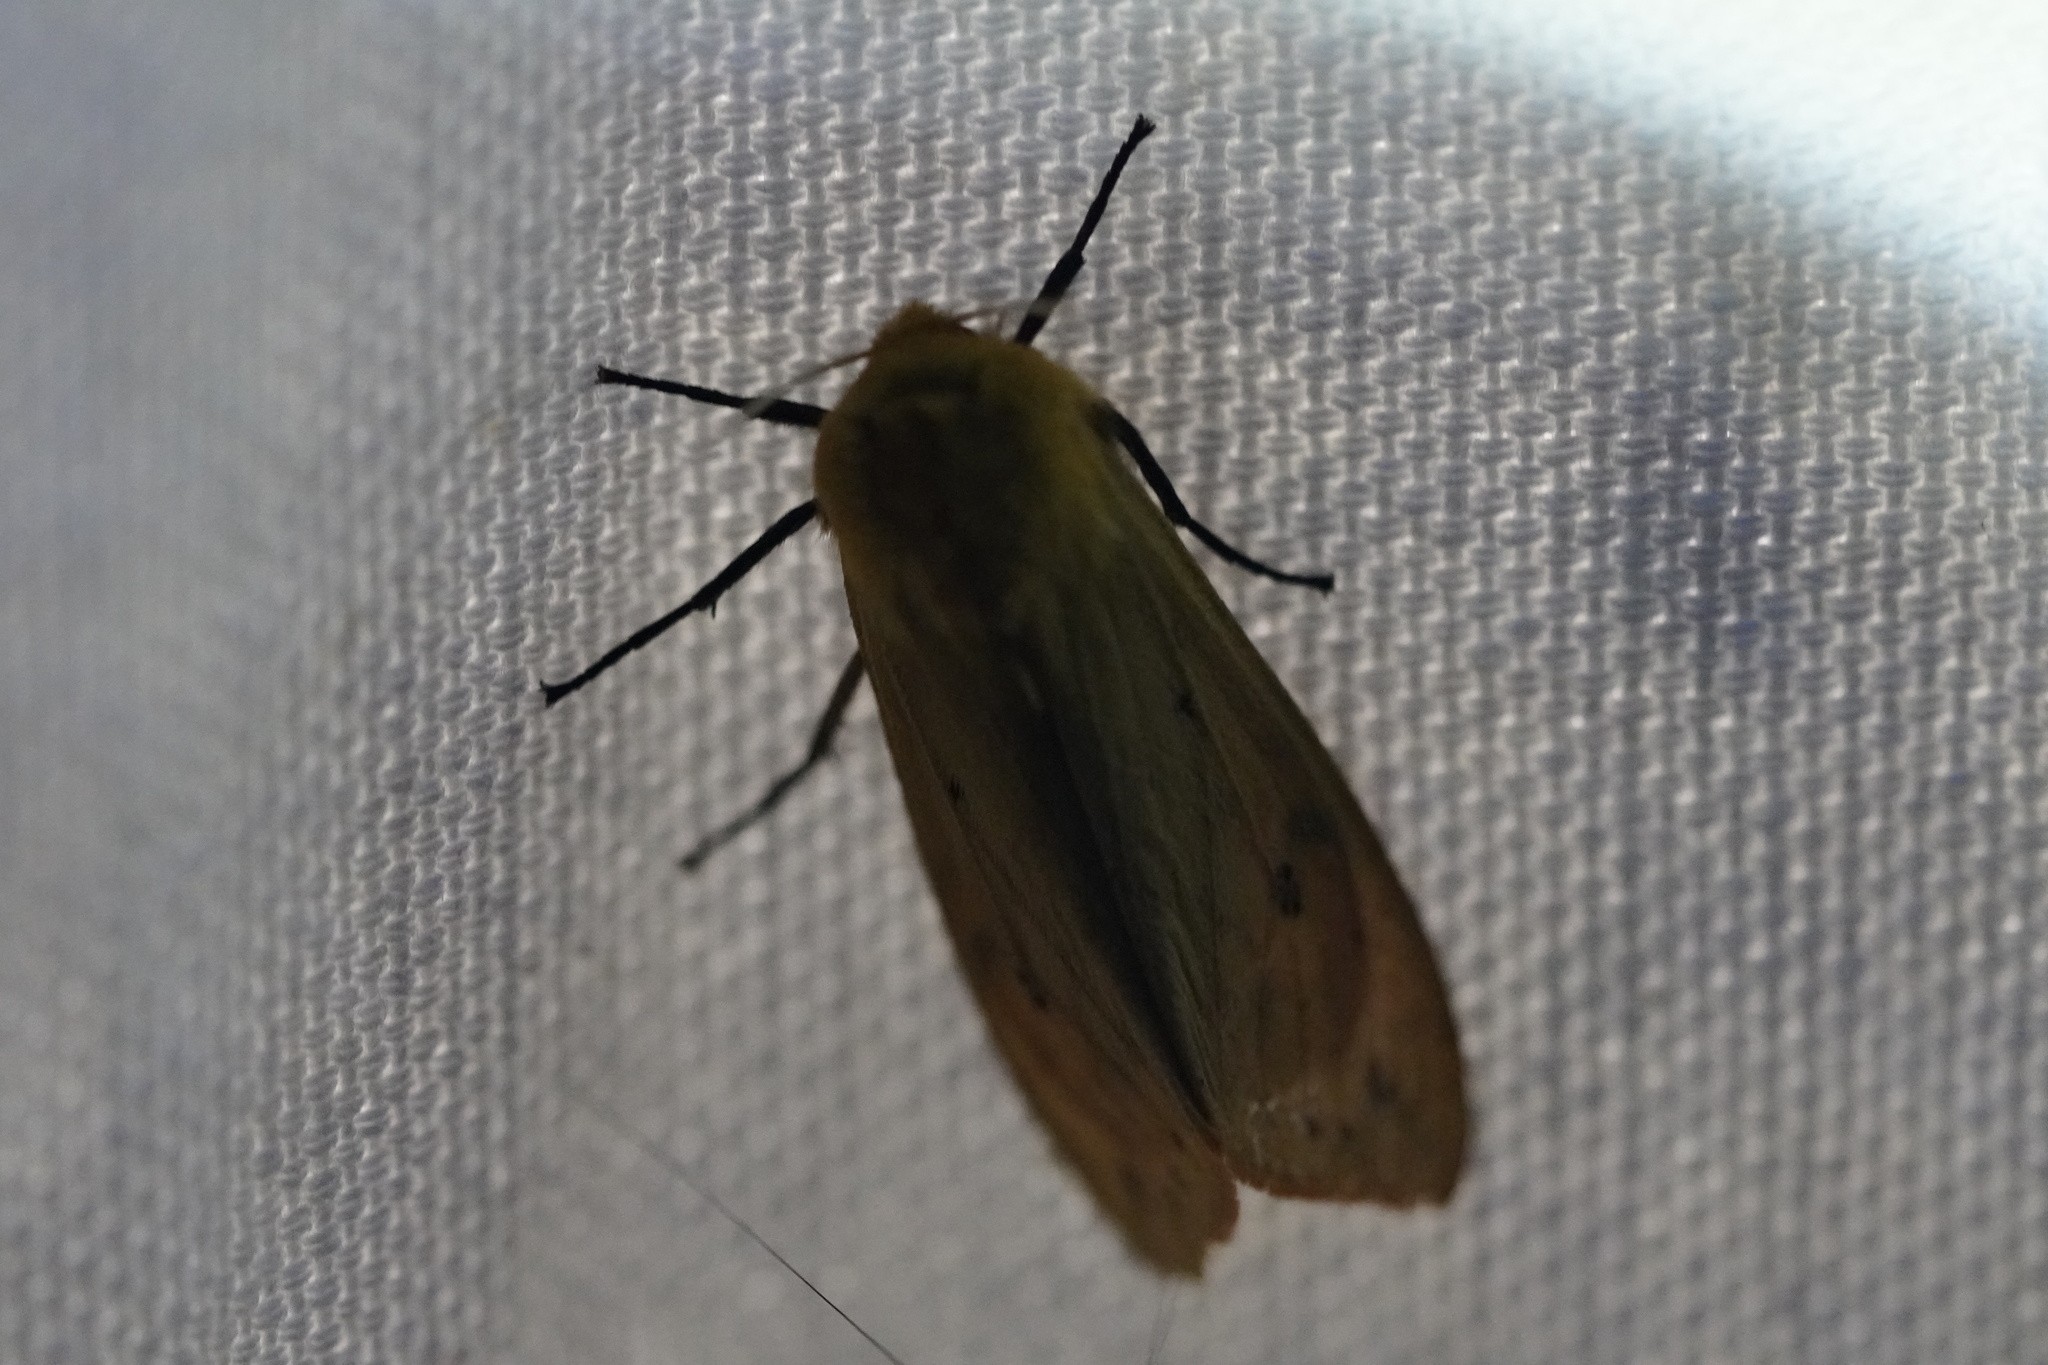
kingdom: Animalia
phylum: Arthropoda
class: Insecta
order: Lepidoptera
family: Erebidae
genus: Pyrrharctia
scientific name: Pyrrharctia isabella
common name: Isabella tiger moth
